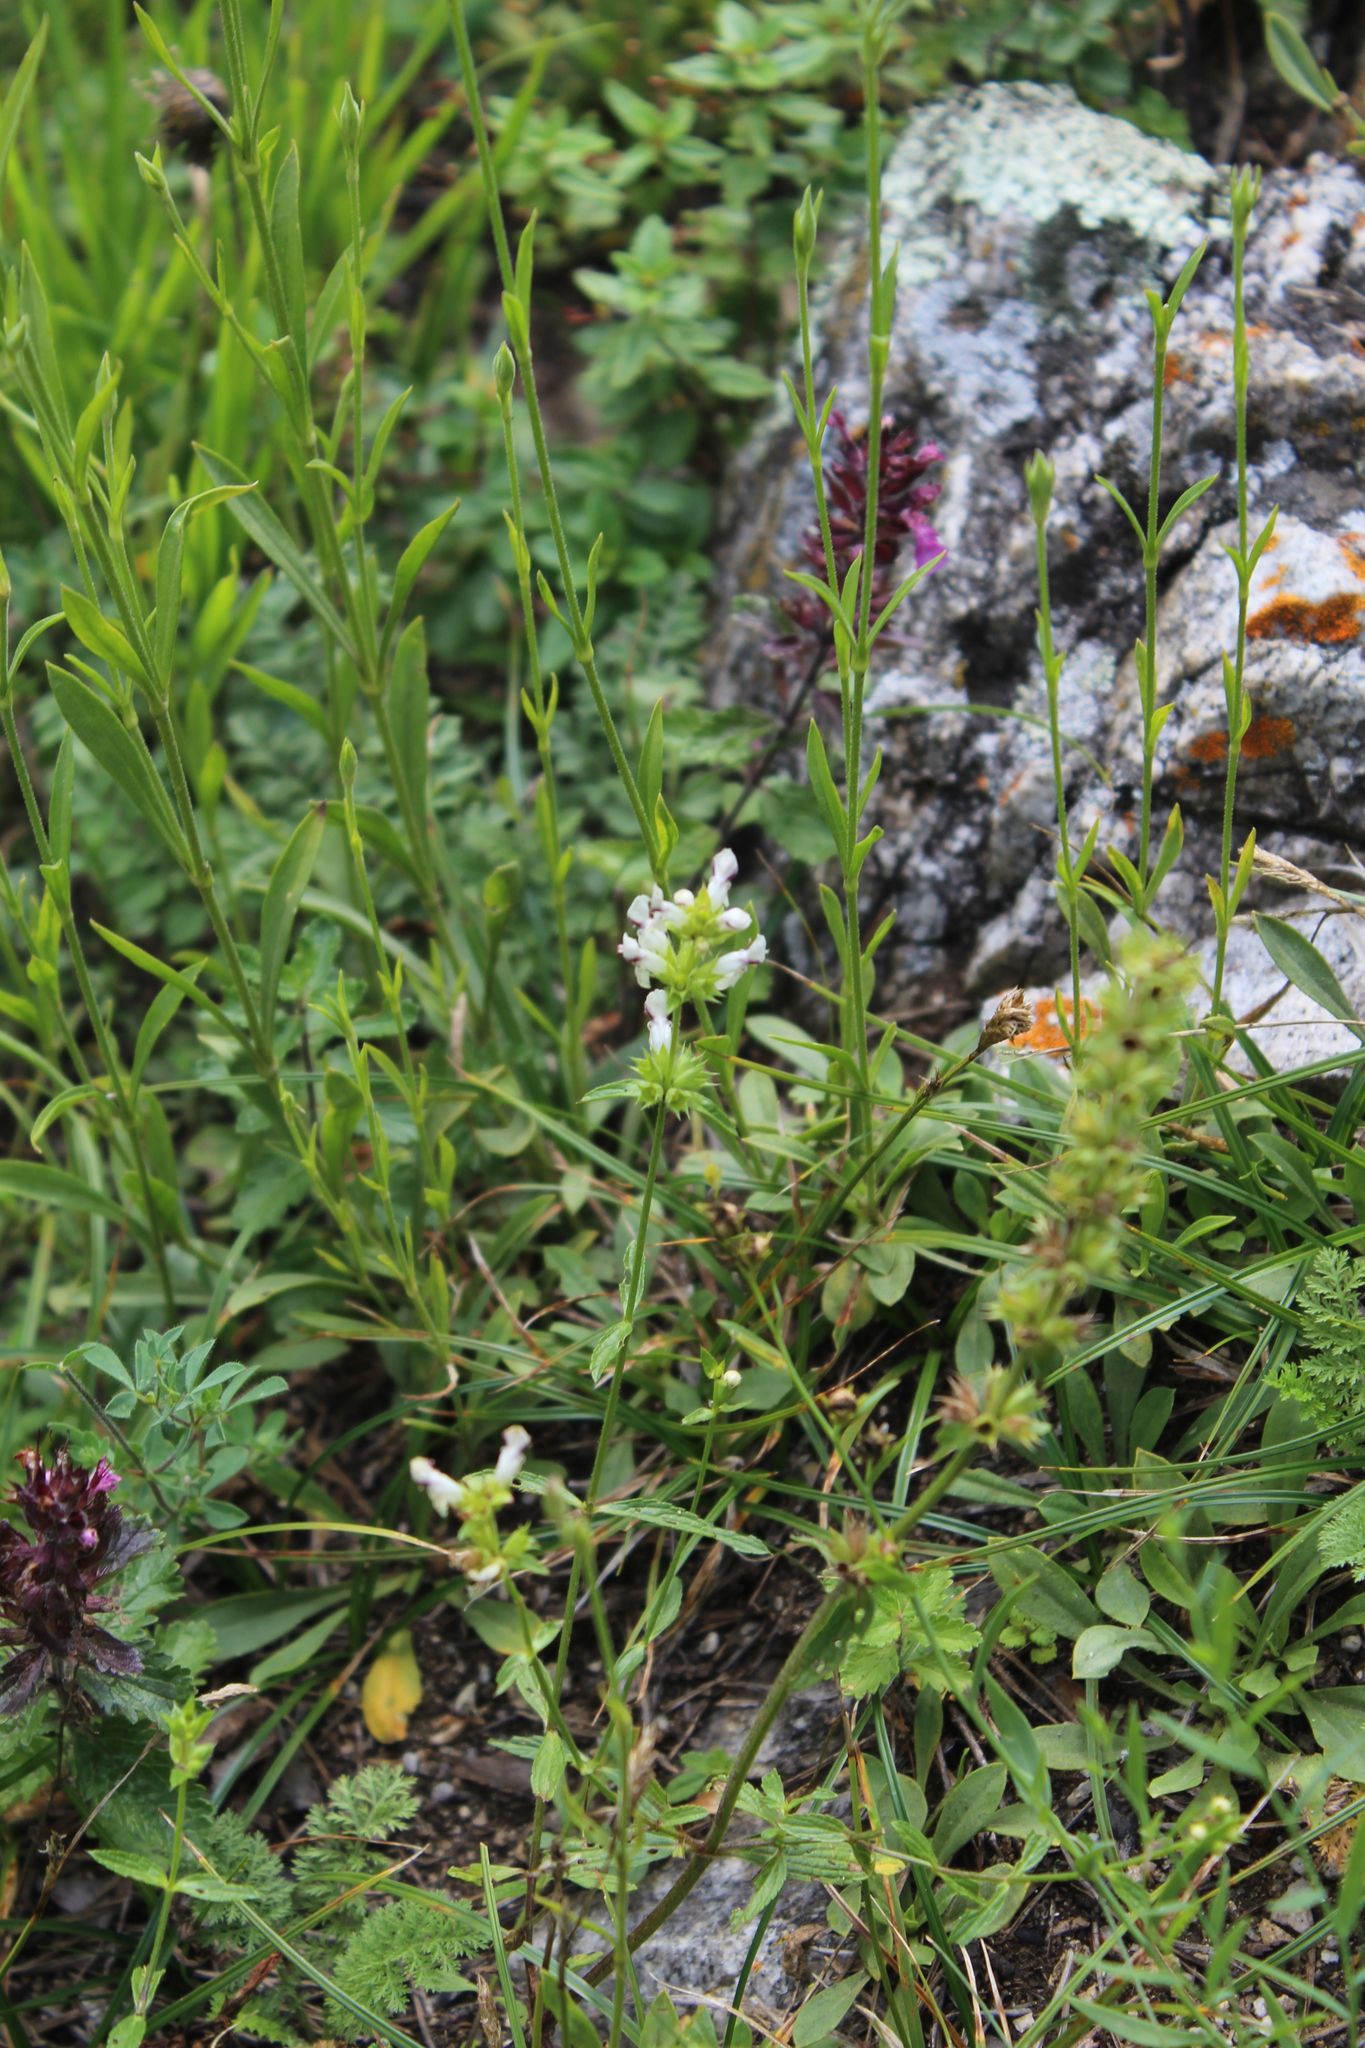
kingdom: Plantae
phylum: Tracheophyta
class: Magnoliopsida
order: Lamiales
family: Lamiaceae
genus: Stachys
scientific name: Stachys atherocalyx
